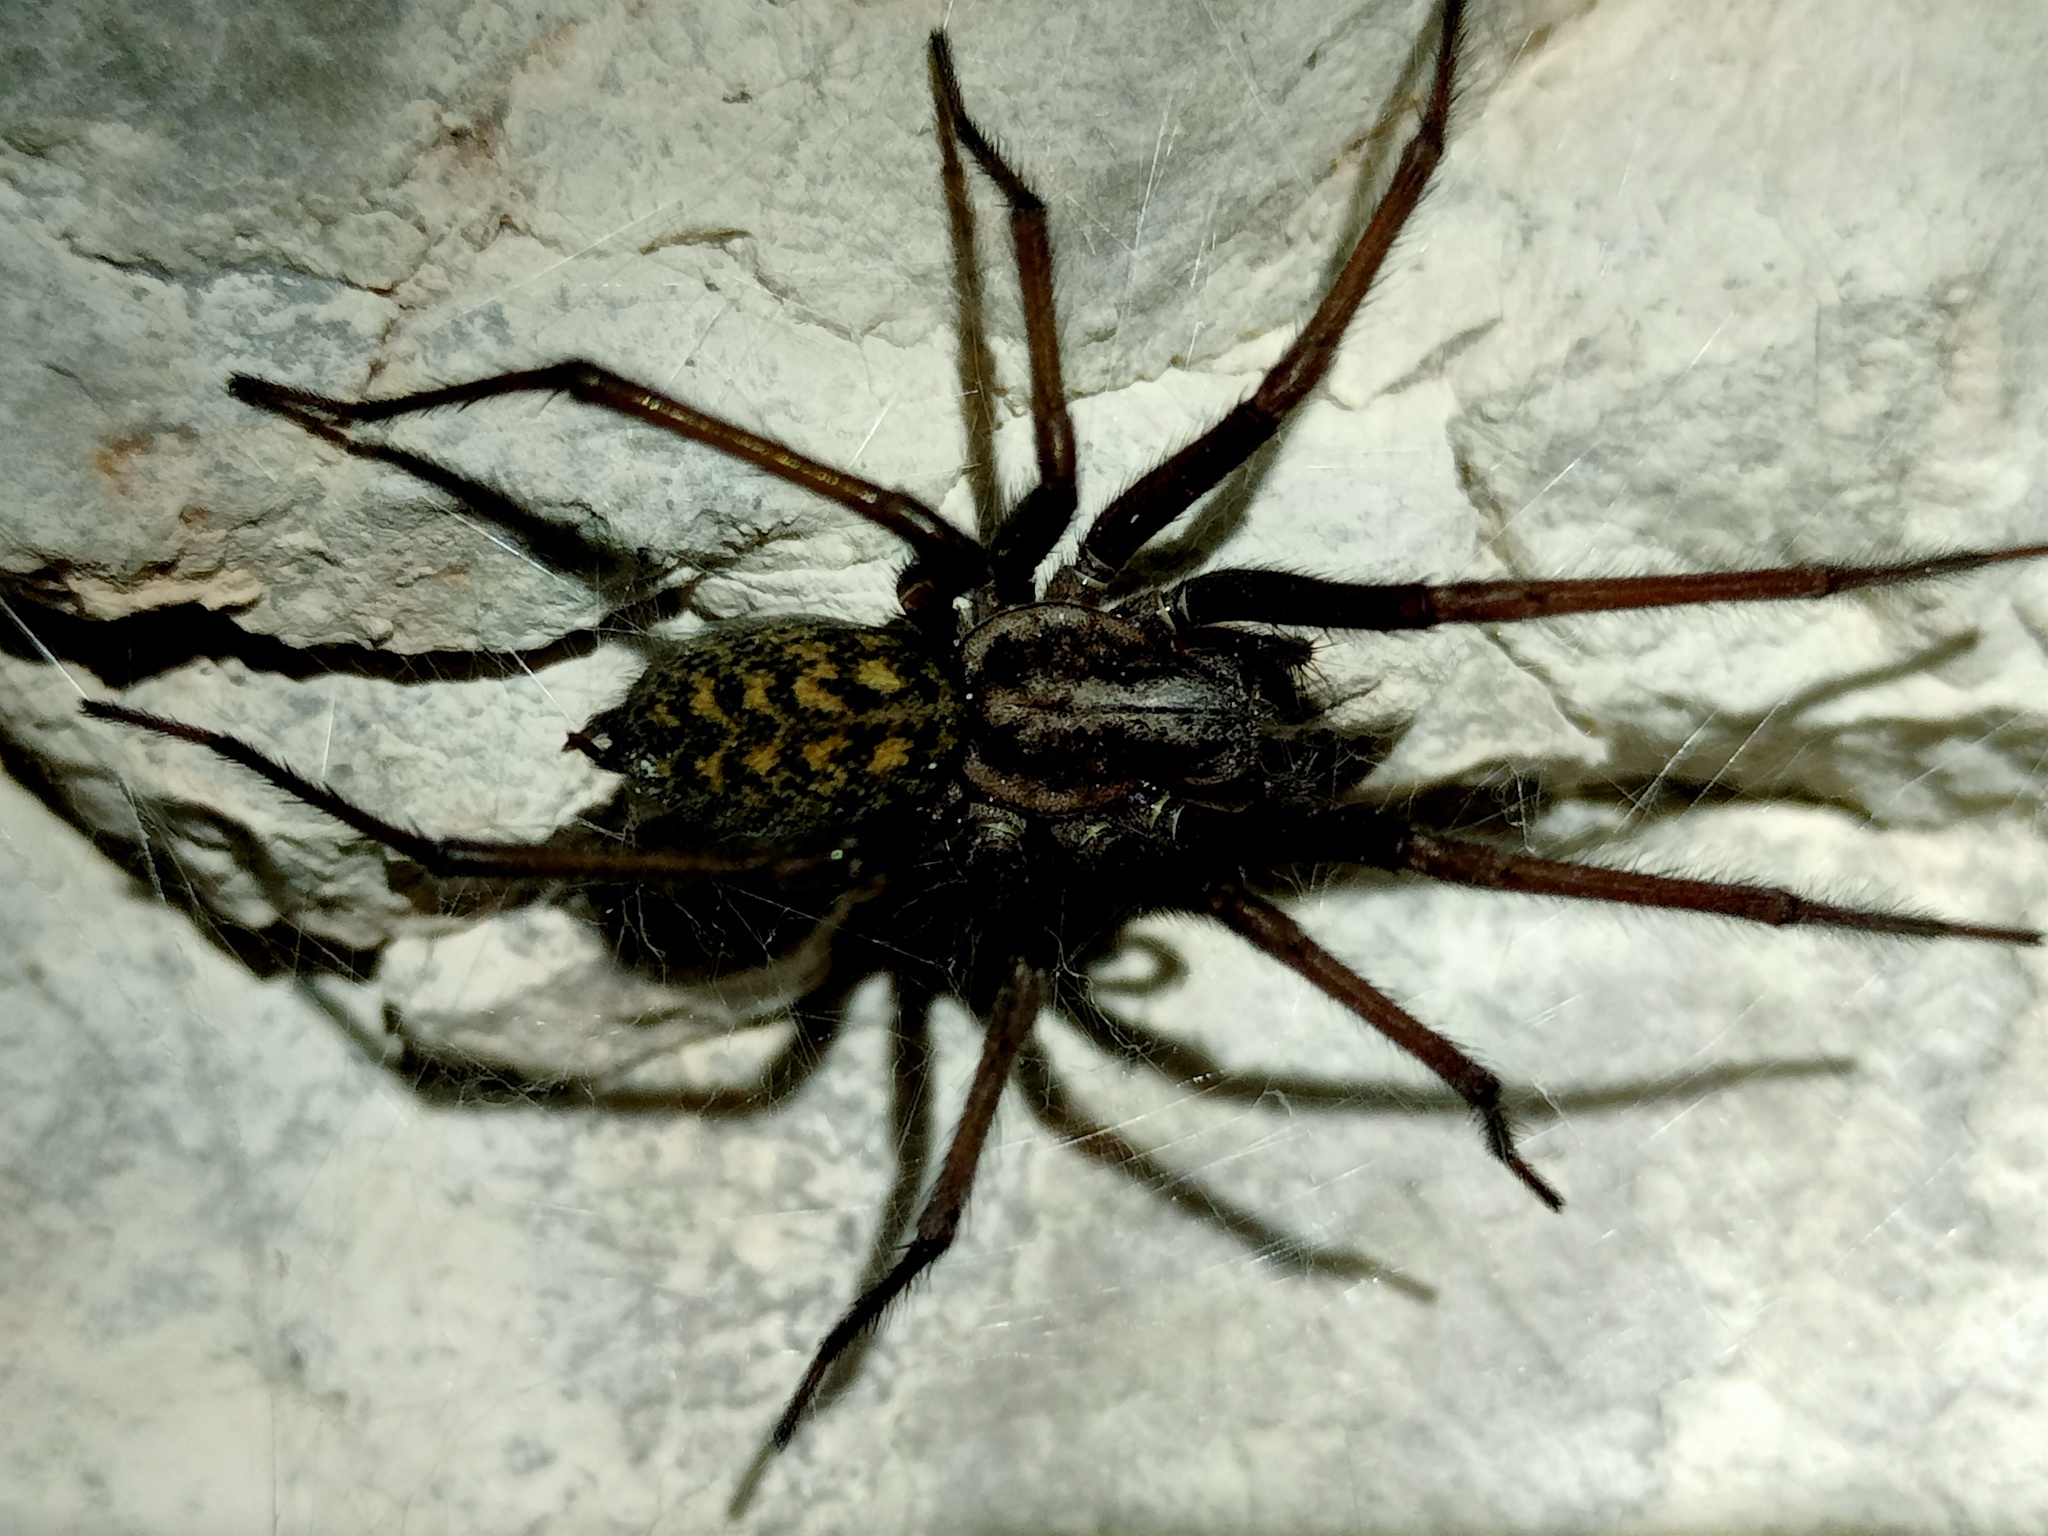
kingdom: Animalia
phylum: Arthropoda
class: Arachnida
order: Araneae
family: Agelenidae
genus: Eratigena
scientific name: Eratigena atrica
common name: Giant house spider
